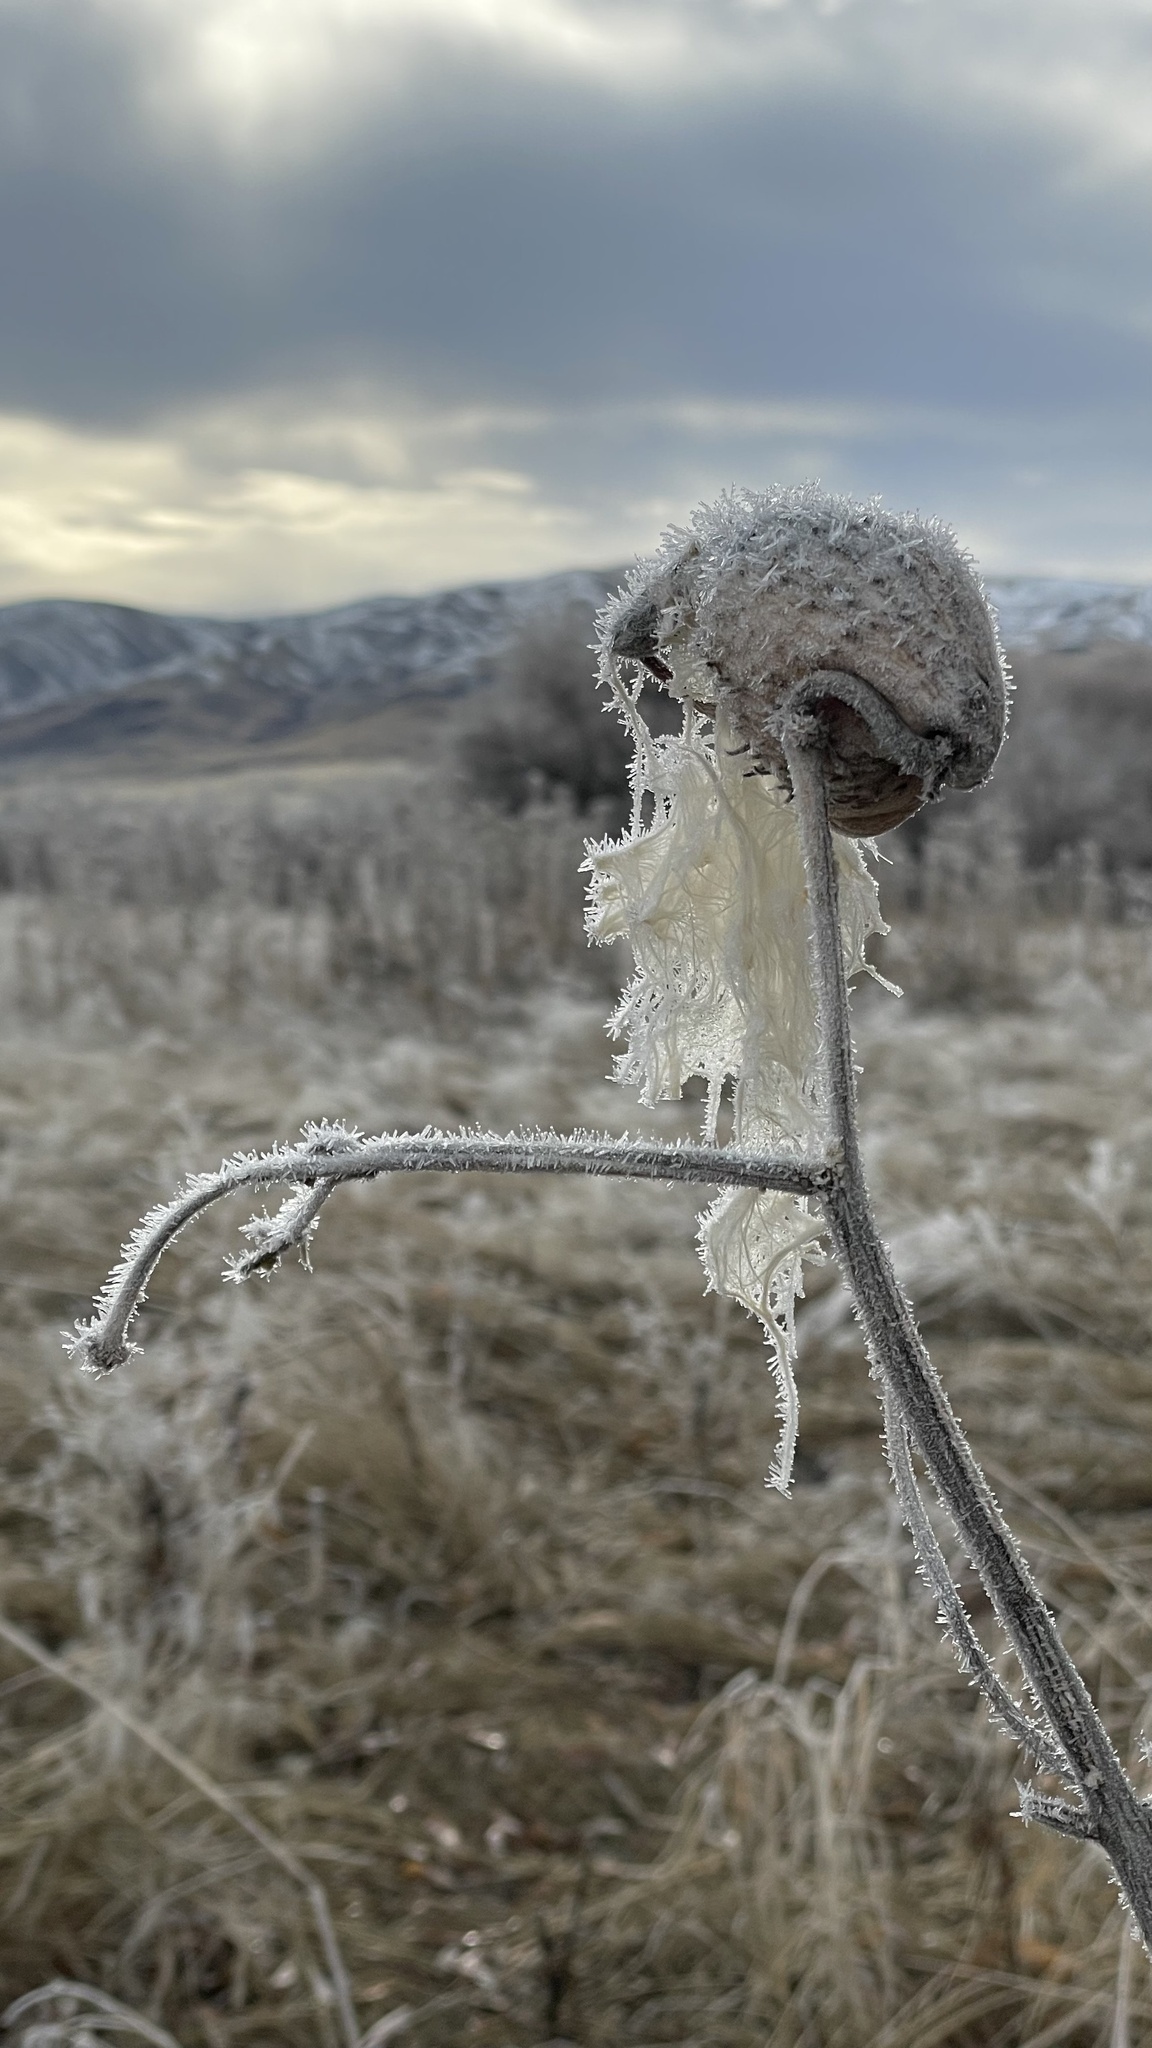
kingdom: Plantae
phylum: Tracheophyta
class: Magnoliopsida
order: Gentianales
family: Apocynaceae
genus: Asclepias
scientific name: Asclepias speciosa
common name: Showy milkweed
